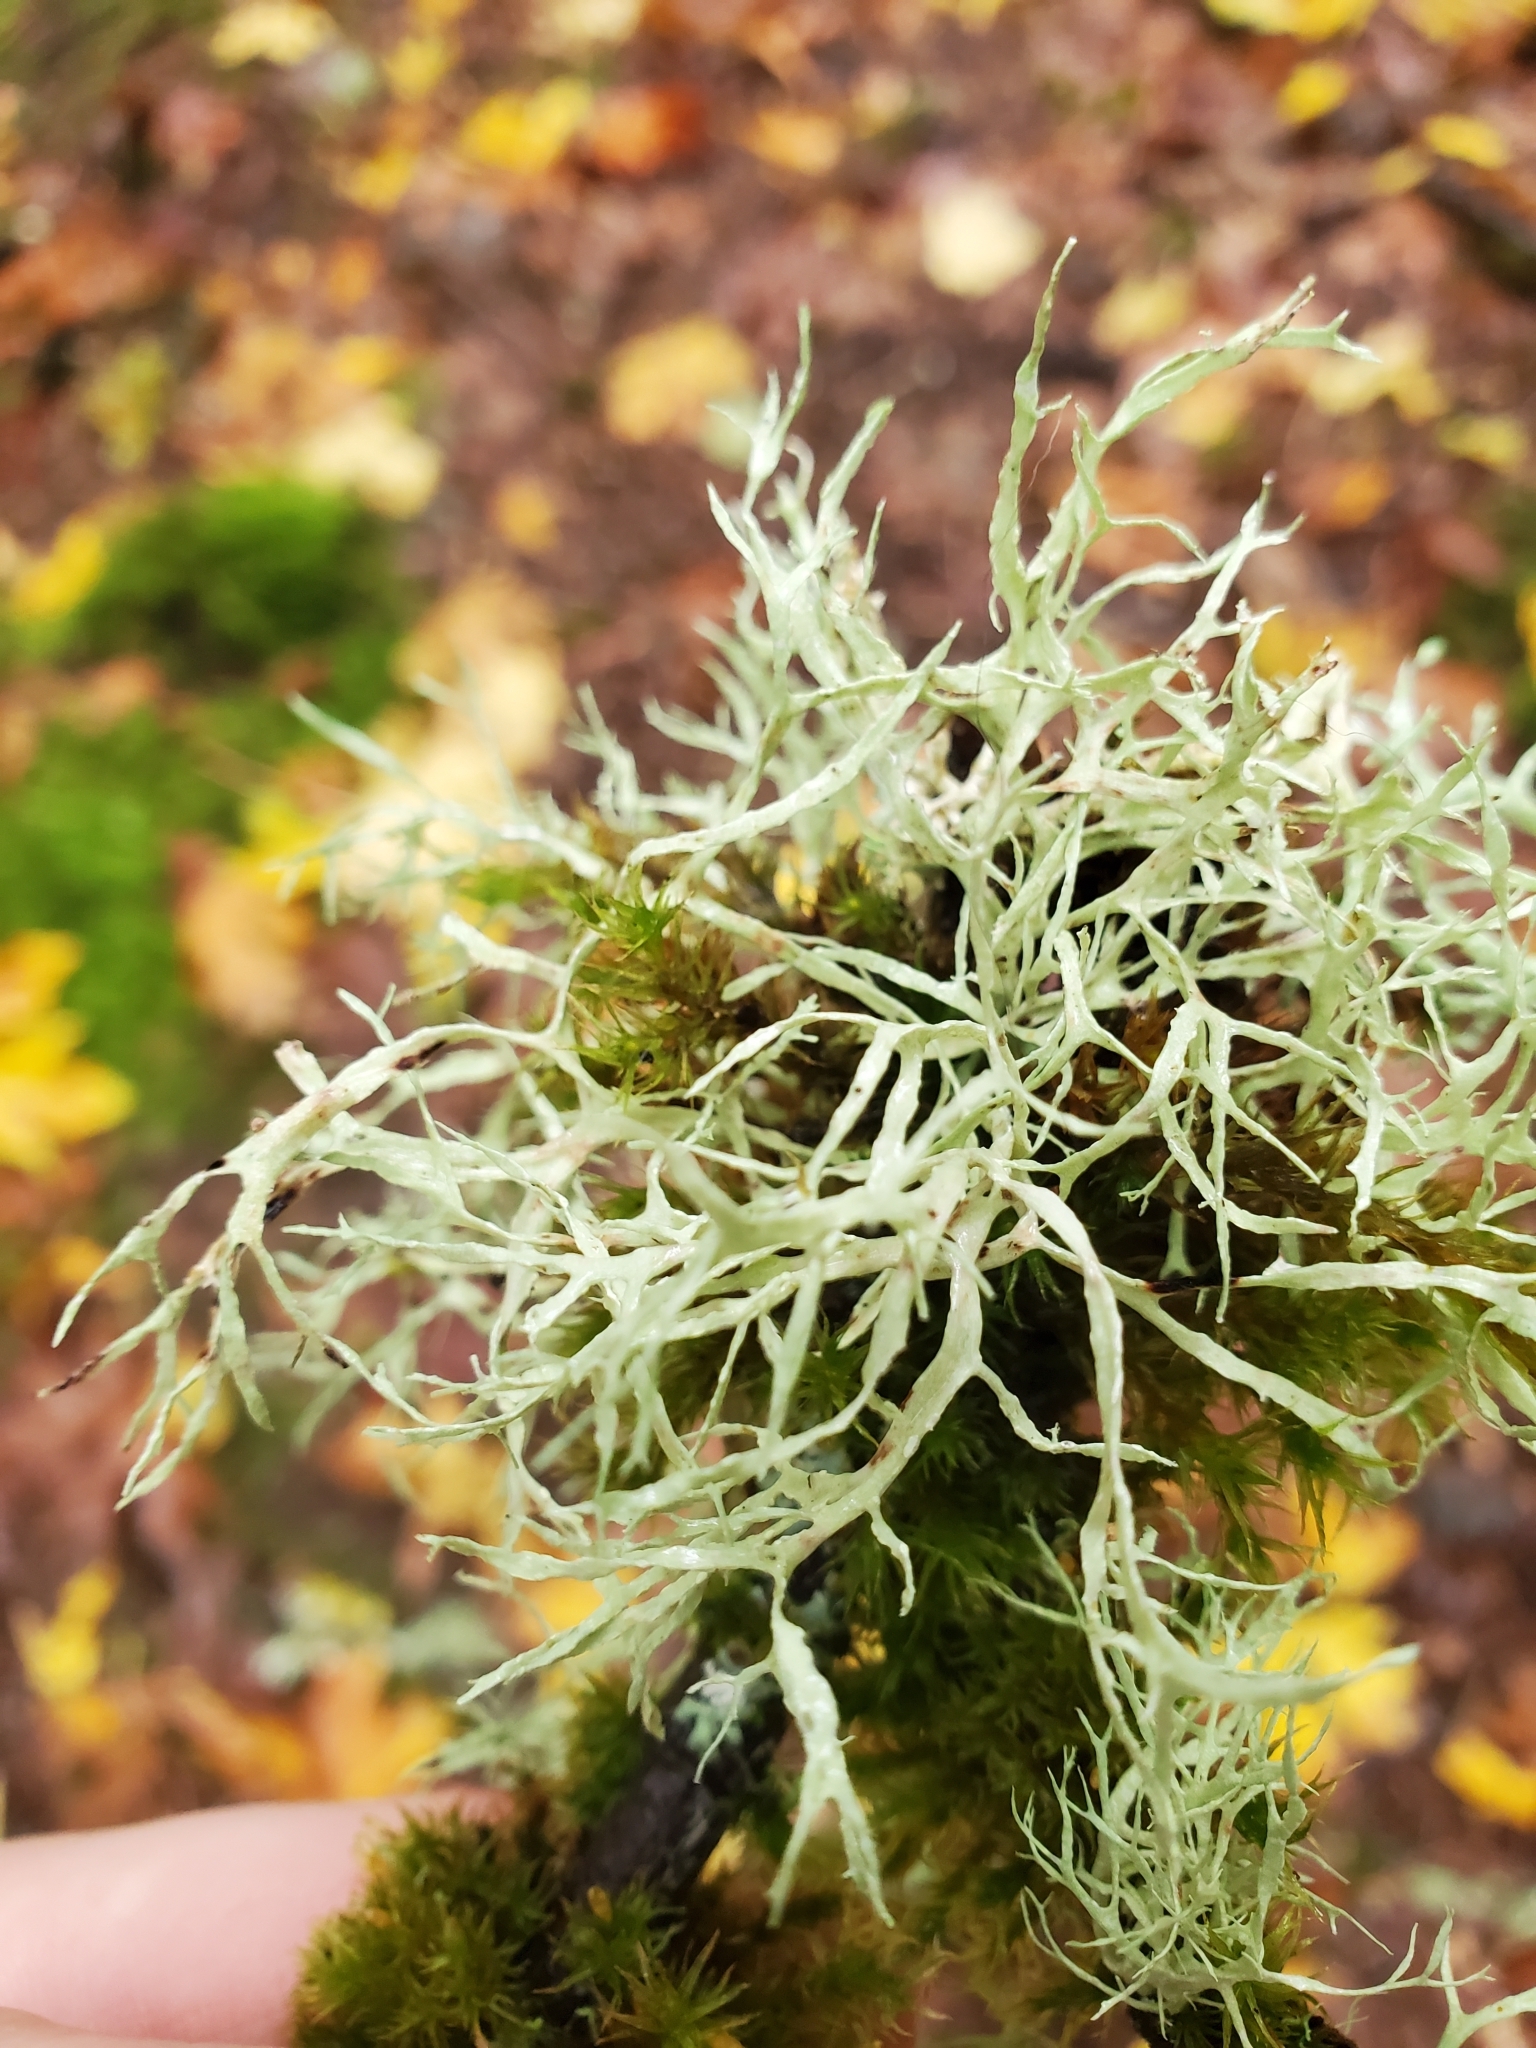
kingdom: Fungi
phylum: Ascomycota
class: Lecanoromycetes
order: Lecanorales
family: Ramalinaceae
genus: Ramalina
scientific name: Ramalina farinacea
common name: Farinose cartilage lichen
